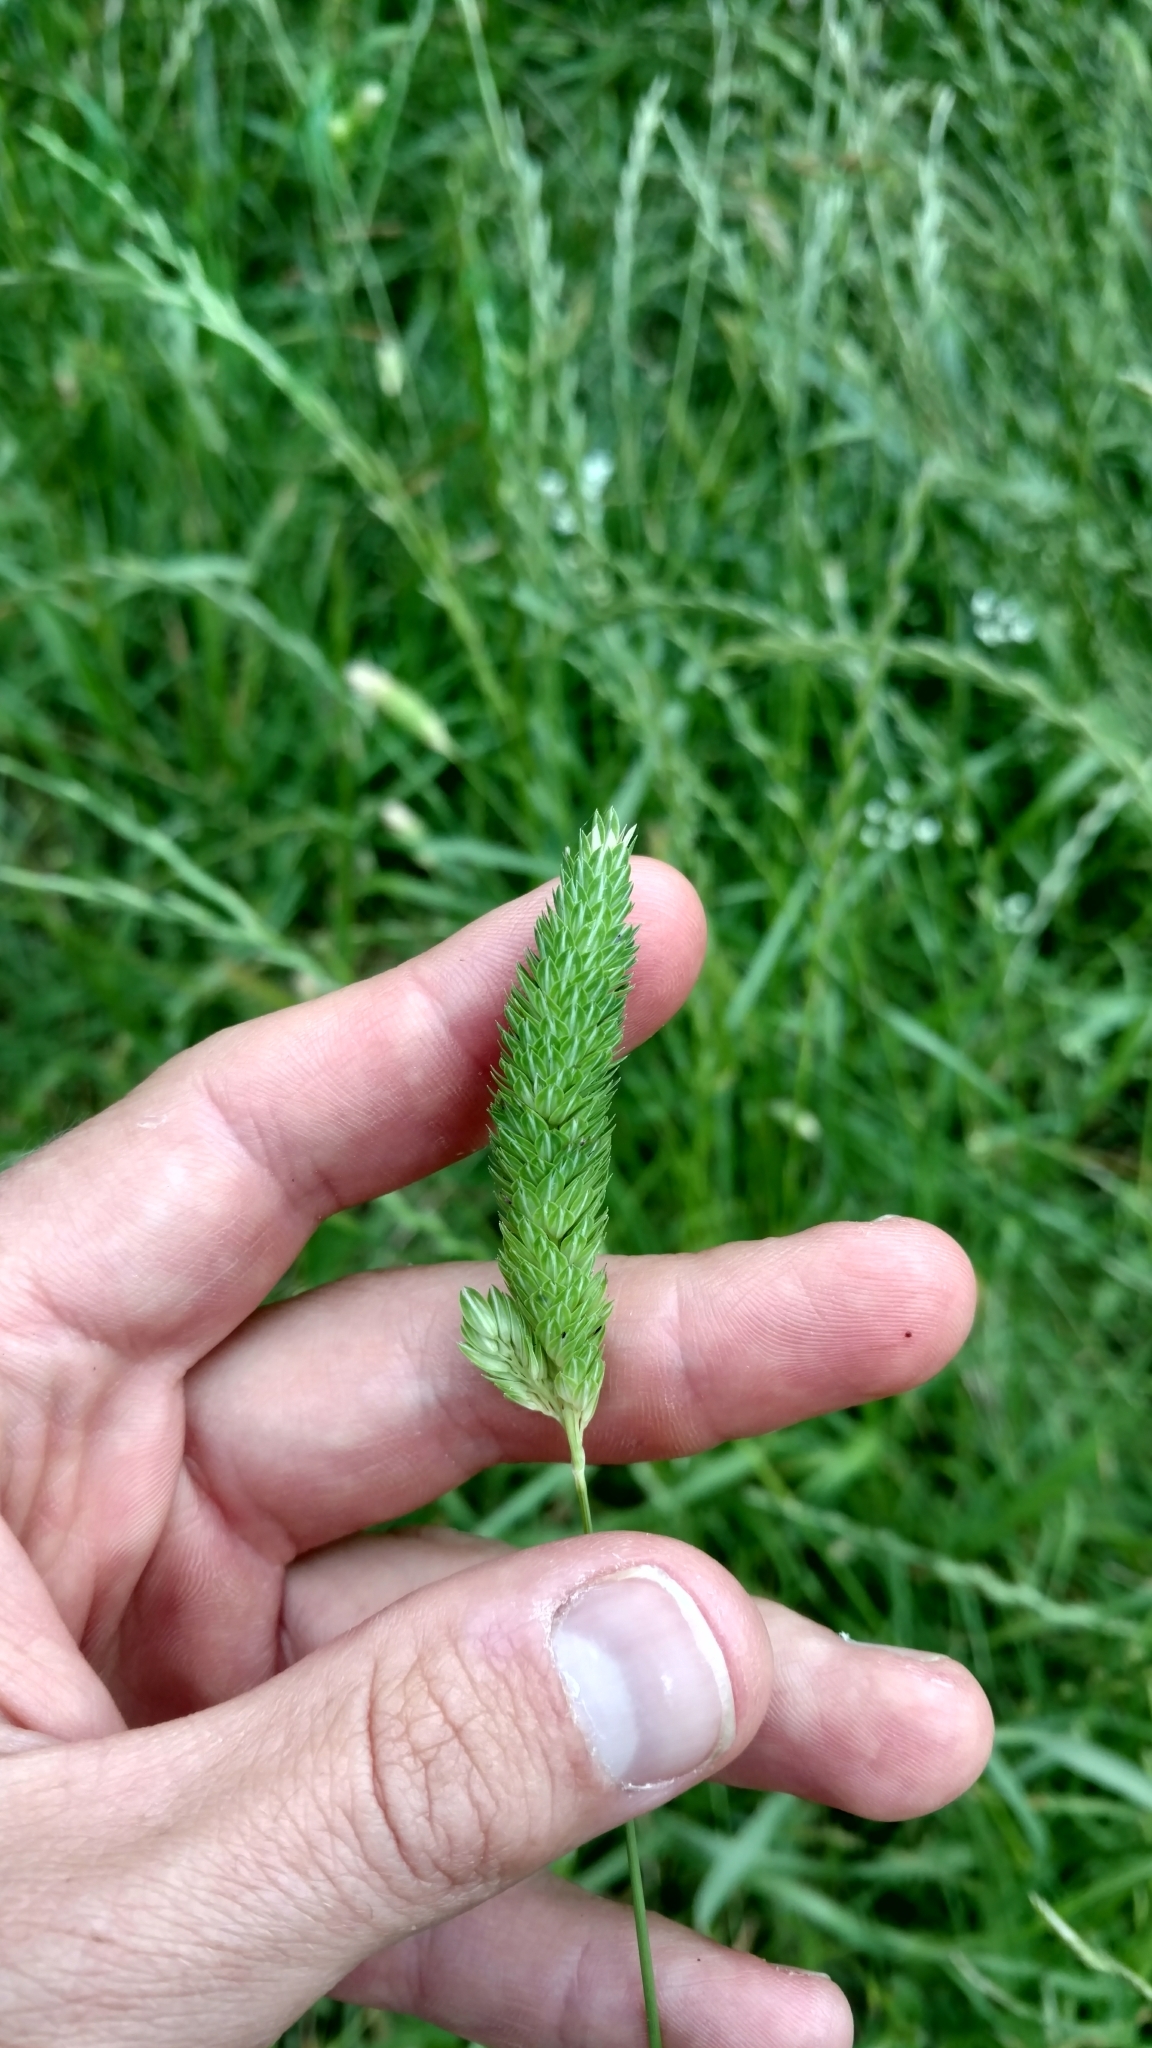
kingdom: Plantae
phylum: Tracheophyta
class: Liliopsida
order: Poales
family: Poaceae
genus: Phalaris
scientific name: Phalaris caroliniana
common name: May grass
